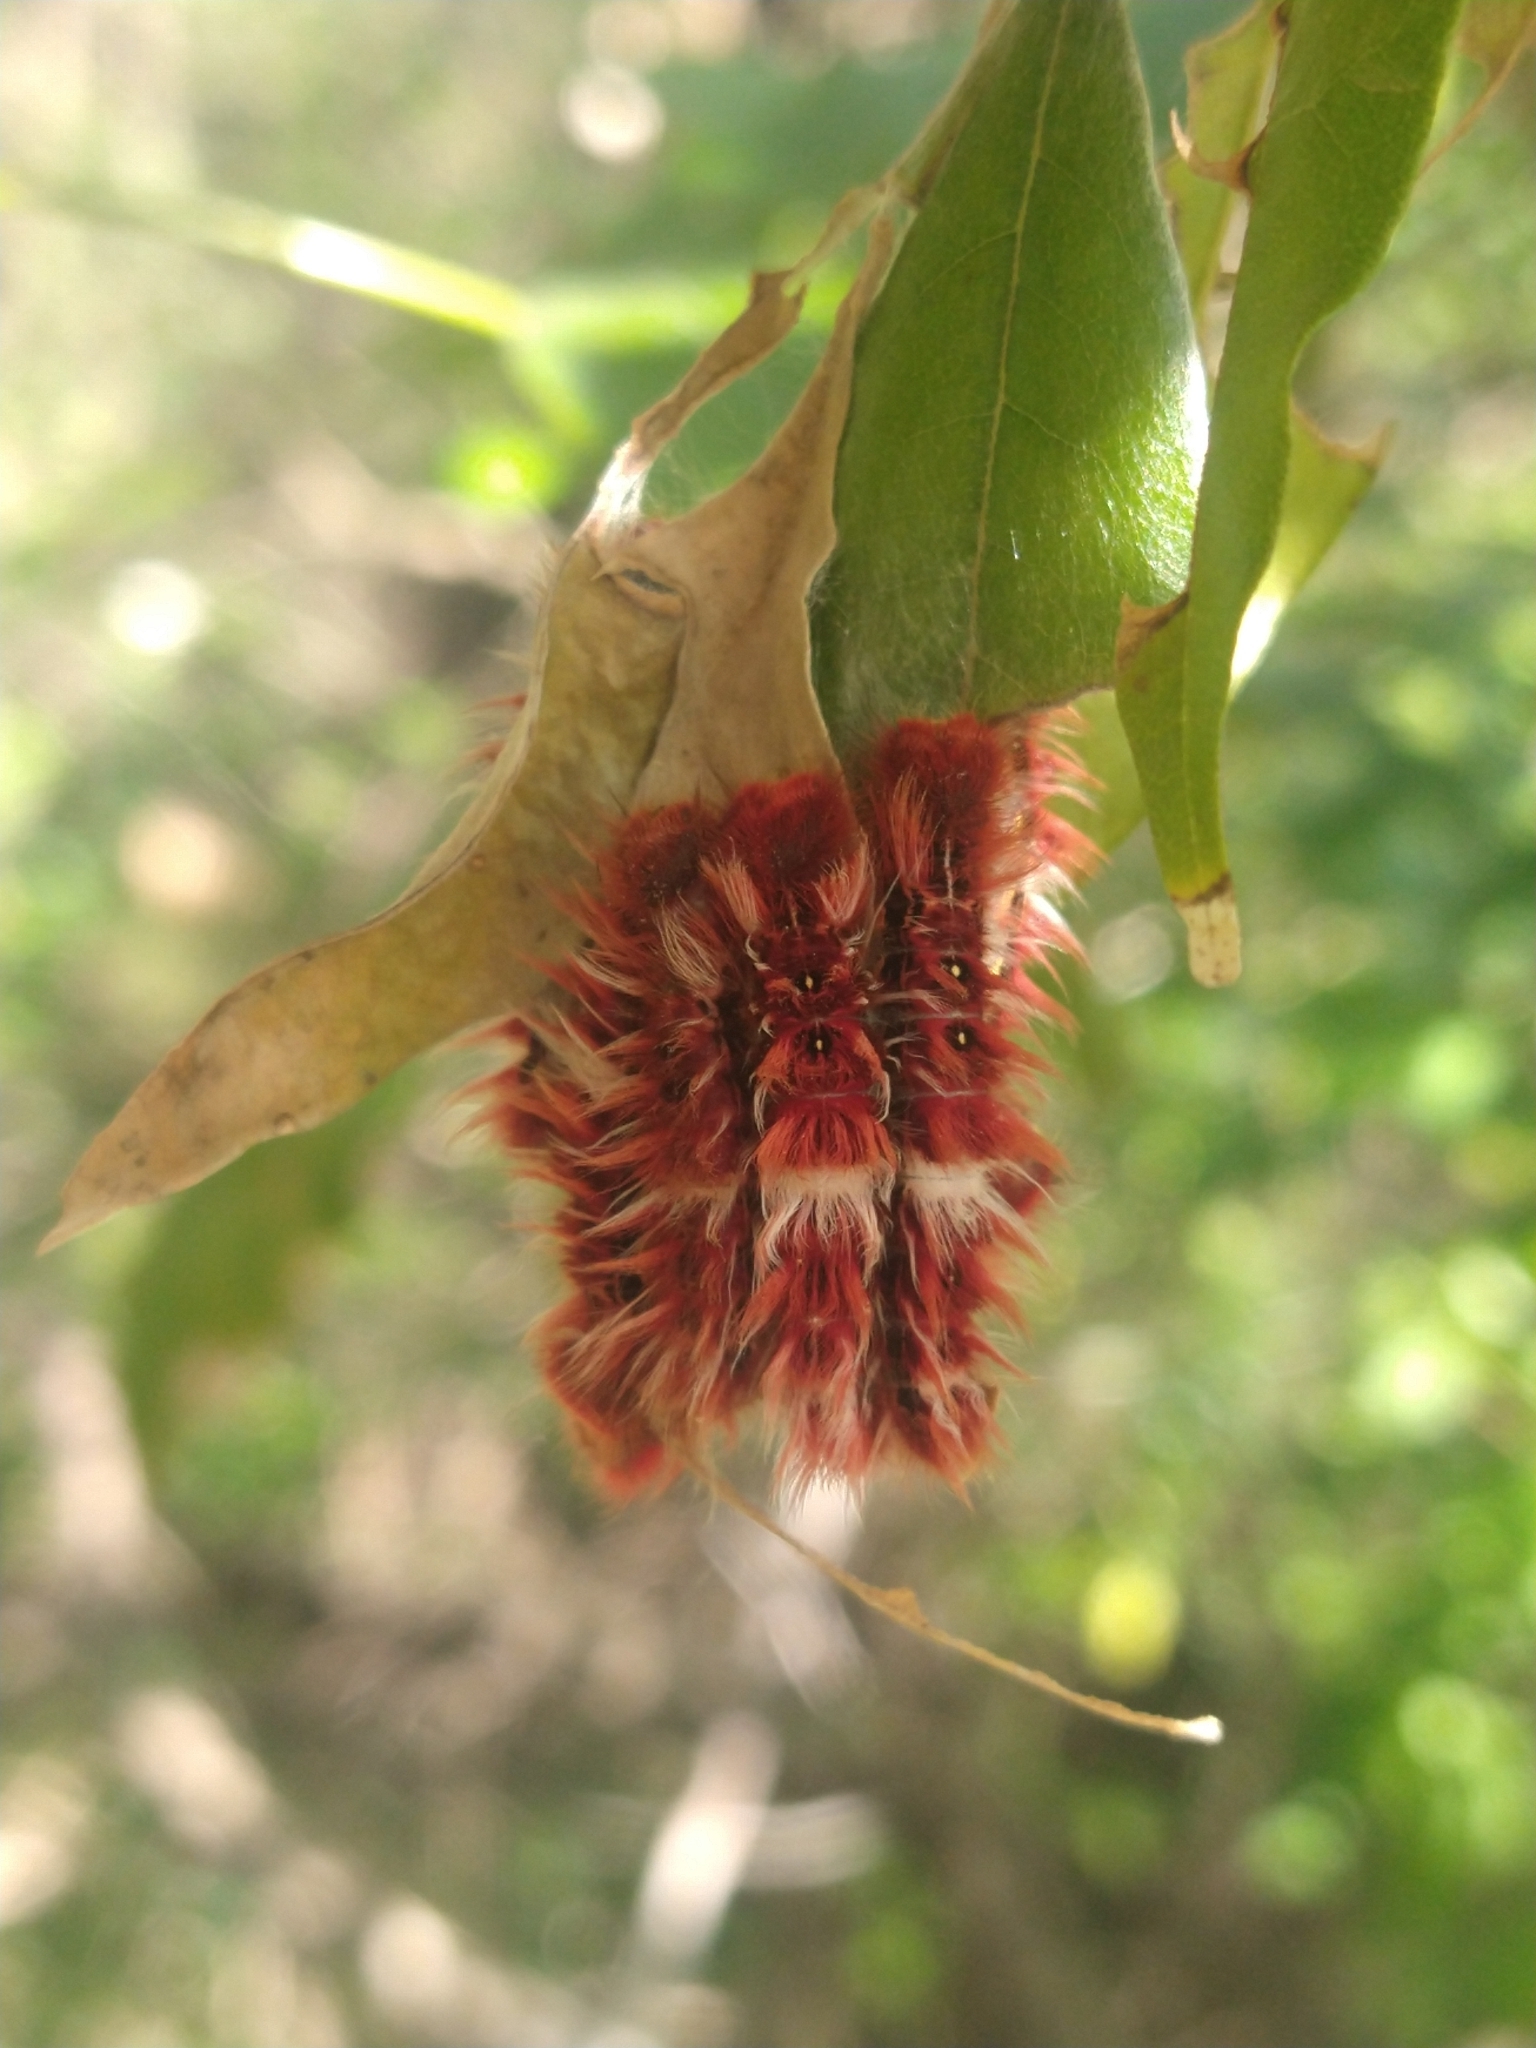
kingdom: Animalia
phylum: Arthropoda
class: Insecta
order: Lepidoptera
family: Nymphalidae
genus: Morpho
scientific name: Morpho epistrophus
